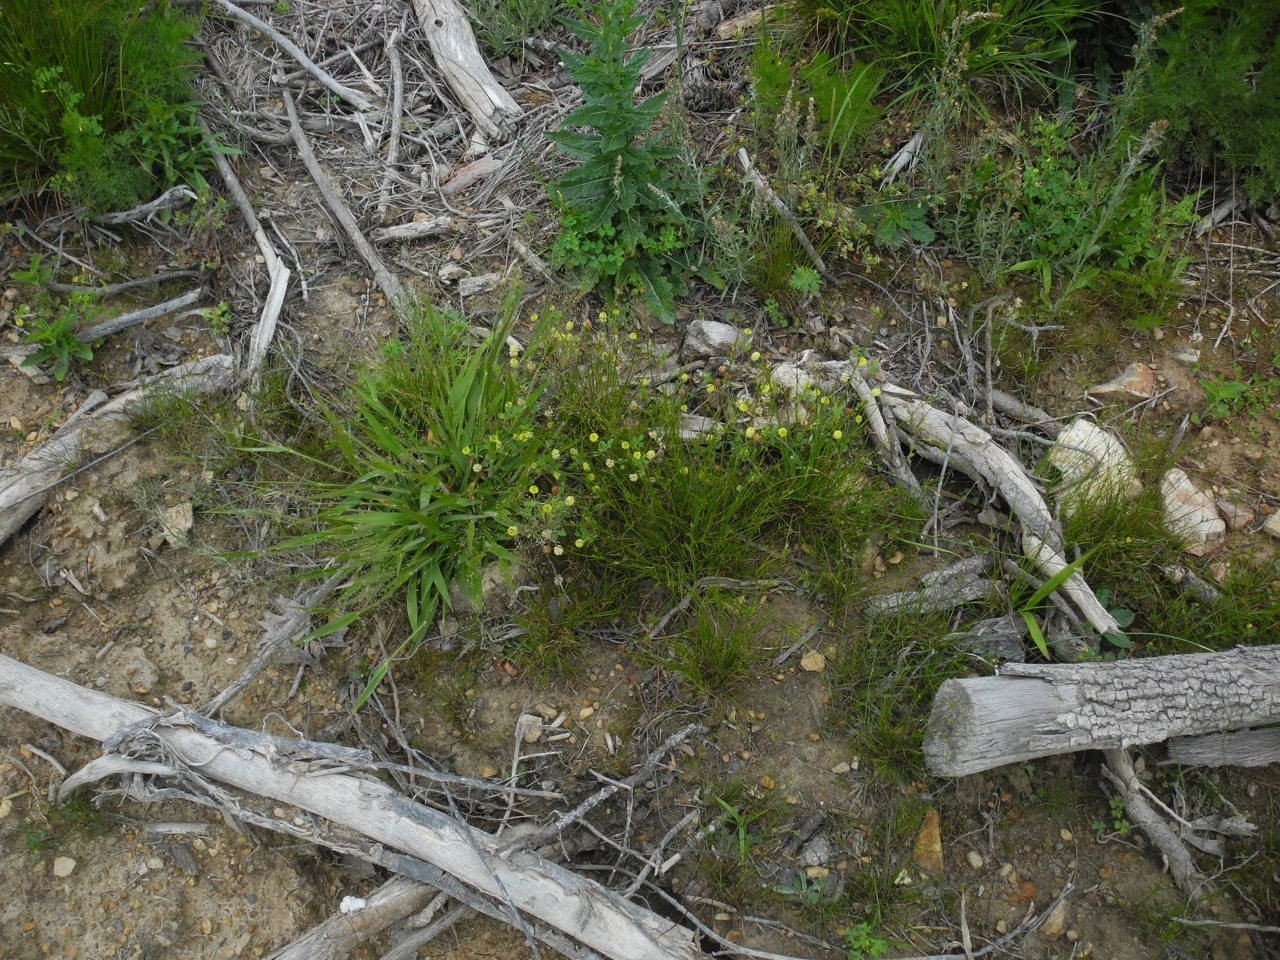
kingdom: Plantae
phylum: Tracheophyta
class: Magnoliopsida
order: Fabales
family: Fabaceae
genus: Trifolium
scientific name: Trifolium campestre
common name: Field clover
